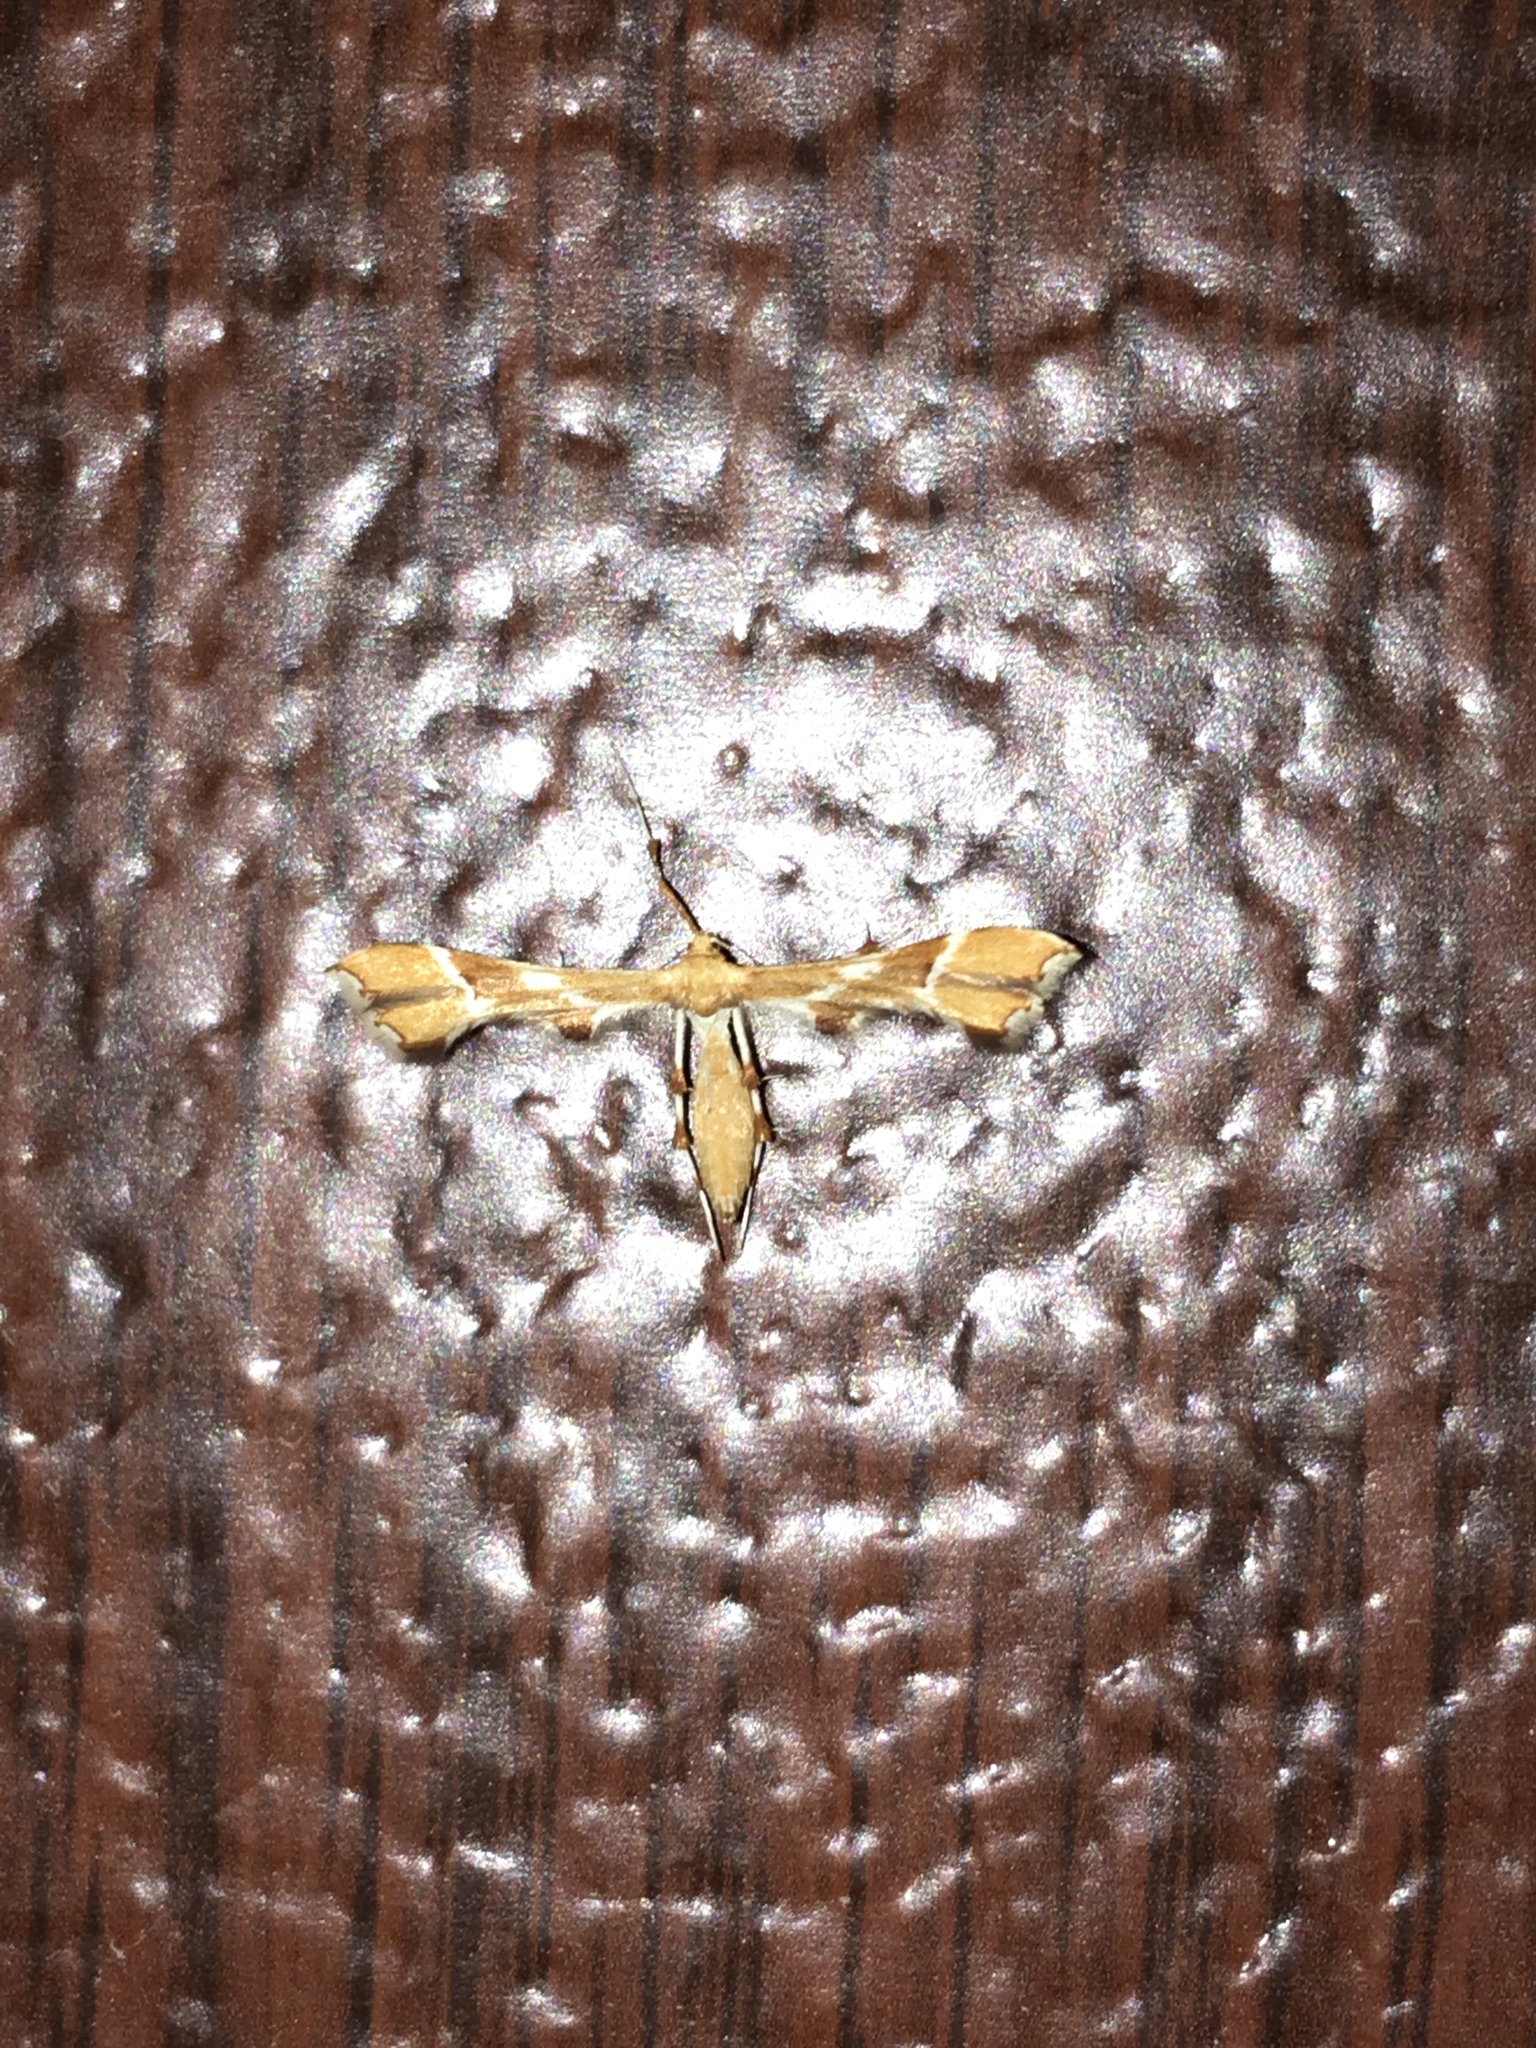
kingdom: Animalia
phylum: Arthropoda
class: Insecta
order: Lepidoptera
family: Pterophoridae
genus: Cnaemidophorus
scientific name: Cnaemidophorus rhododactyla
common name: Rose plume
